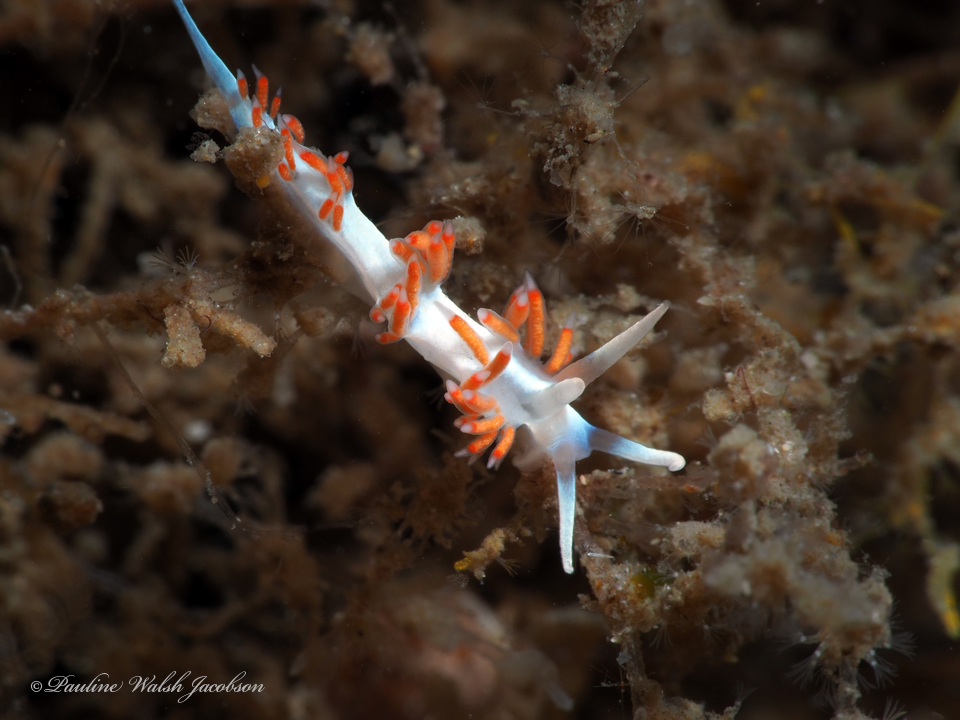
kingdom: Animalia
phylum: Mollusca
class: Gastropoda
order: Nudibranchia
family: Flabellinidae
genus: Flabellina
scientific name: Flabellina dushia
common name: Dushia flabellina
